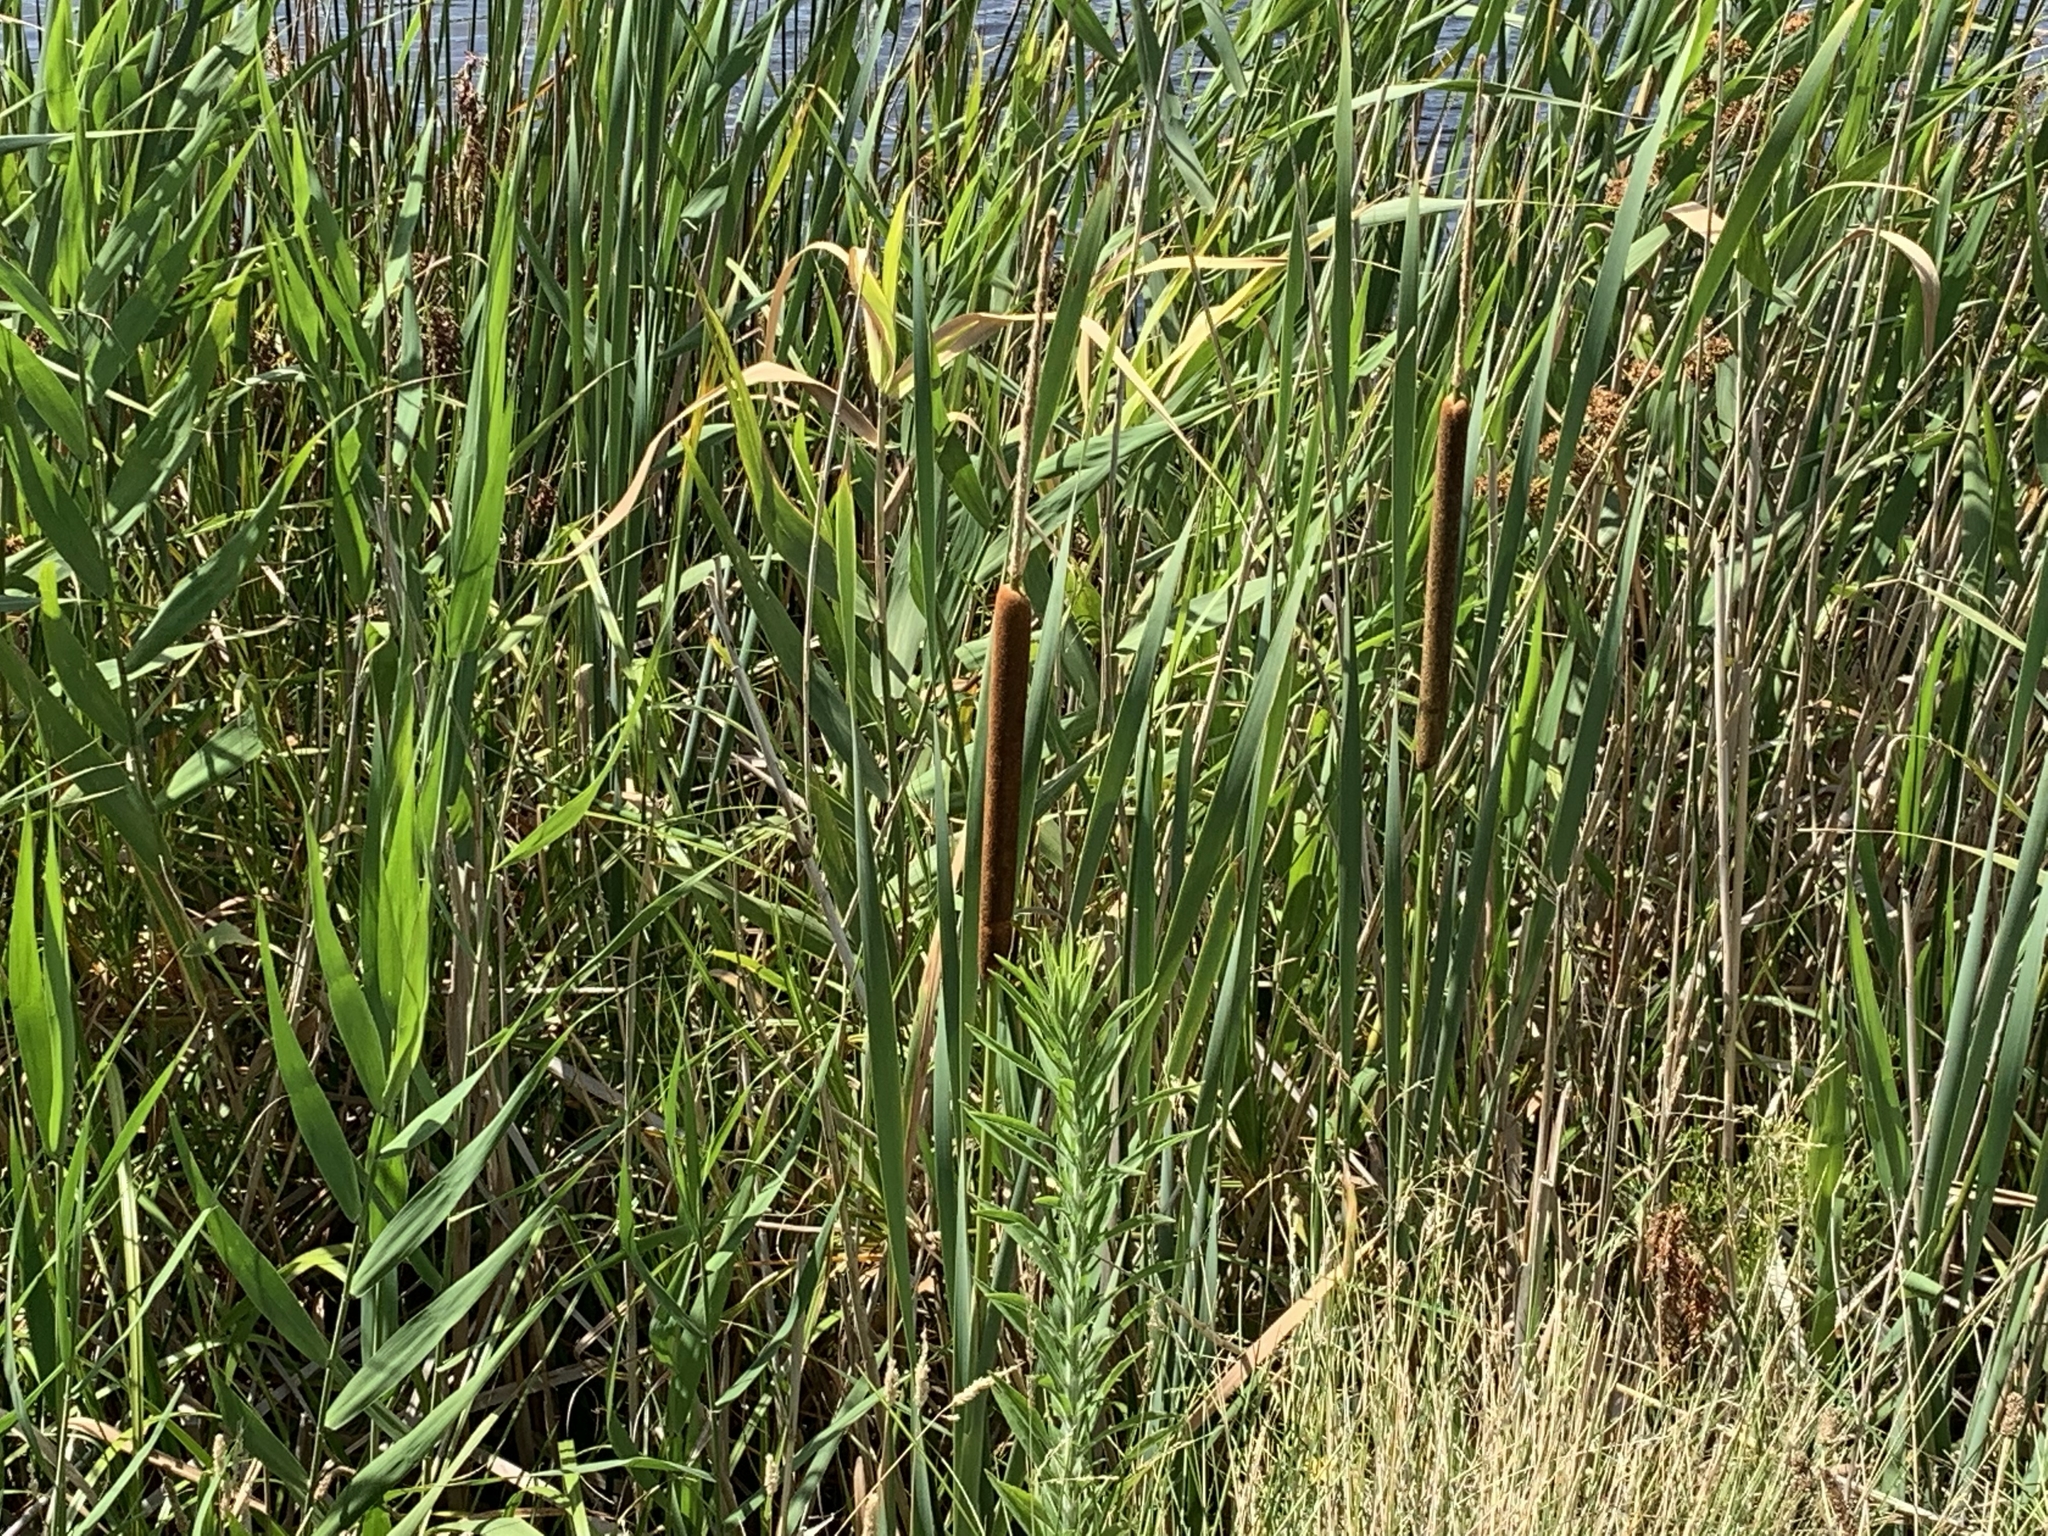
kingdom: Plantae
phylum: Tracheophyta
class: Liliopsida
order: Poales
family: Typhaceae
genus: Typha
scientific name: Typha orientalis
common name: Bullrush
